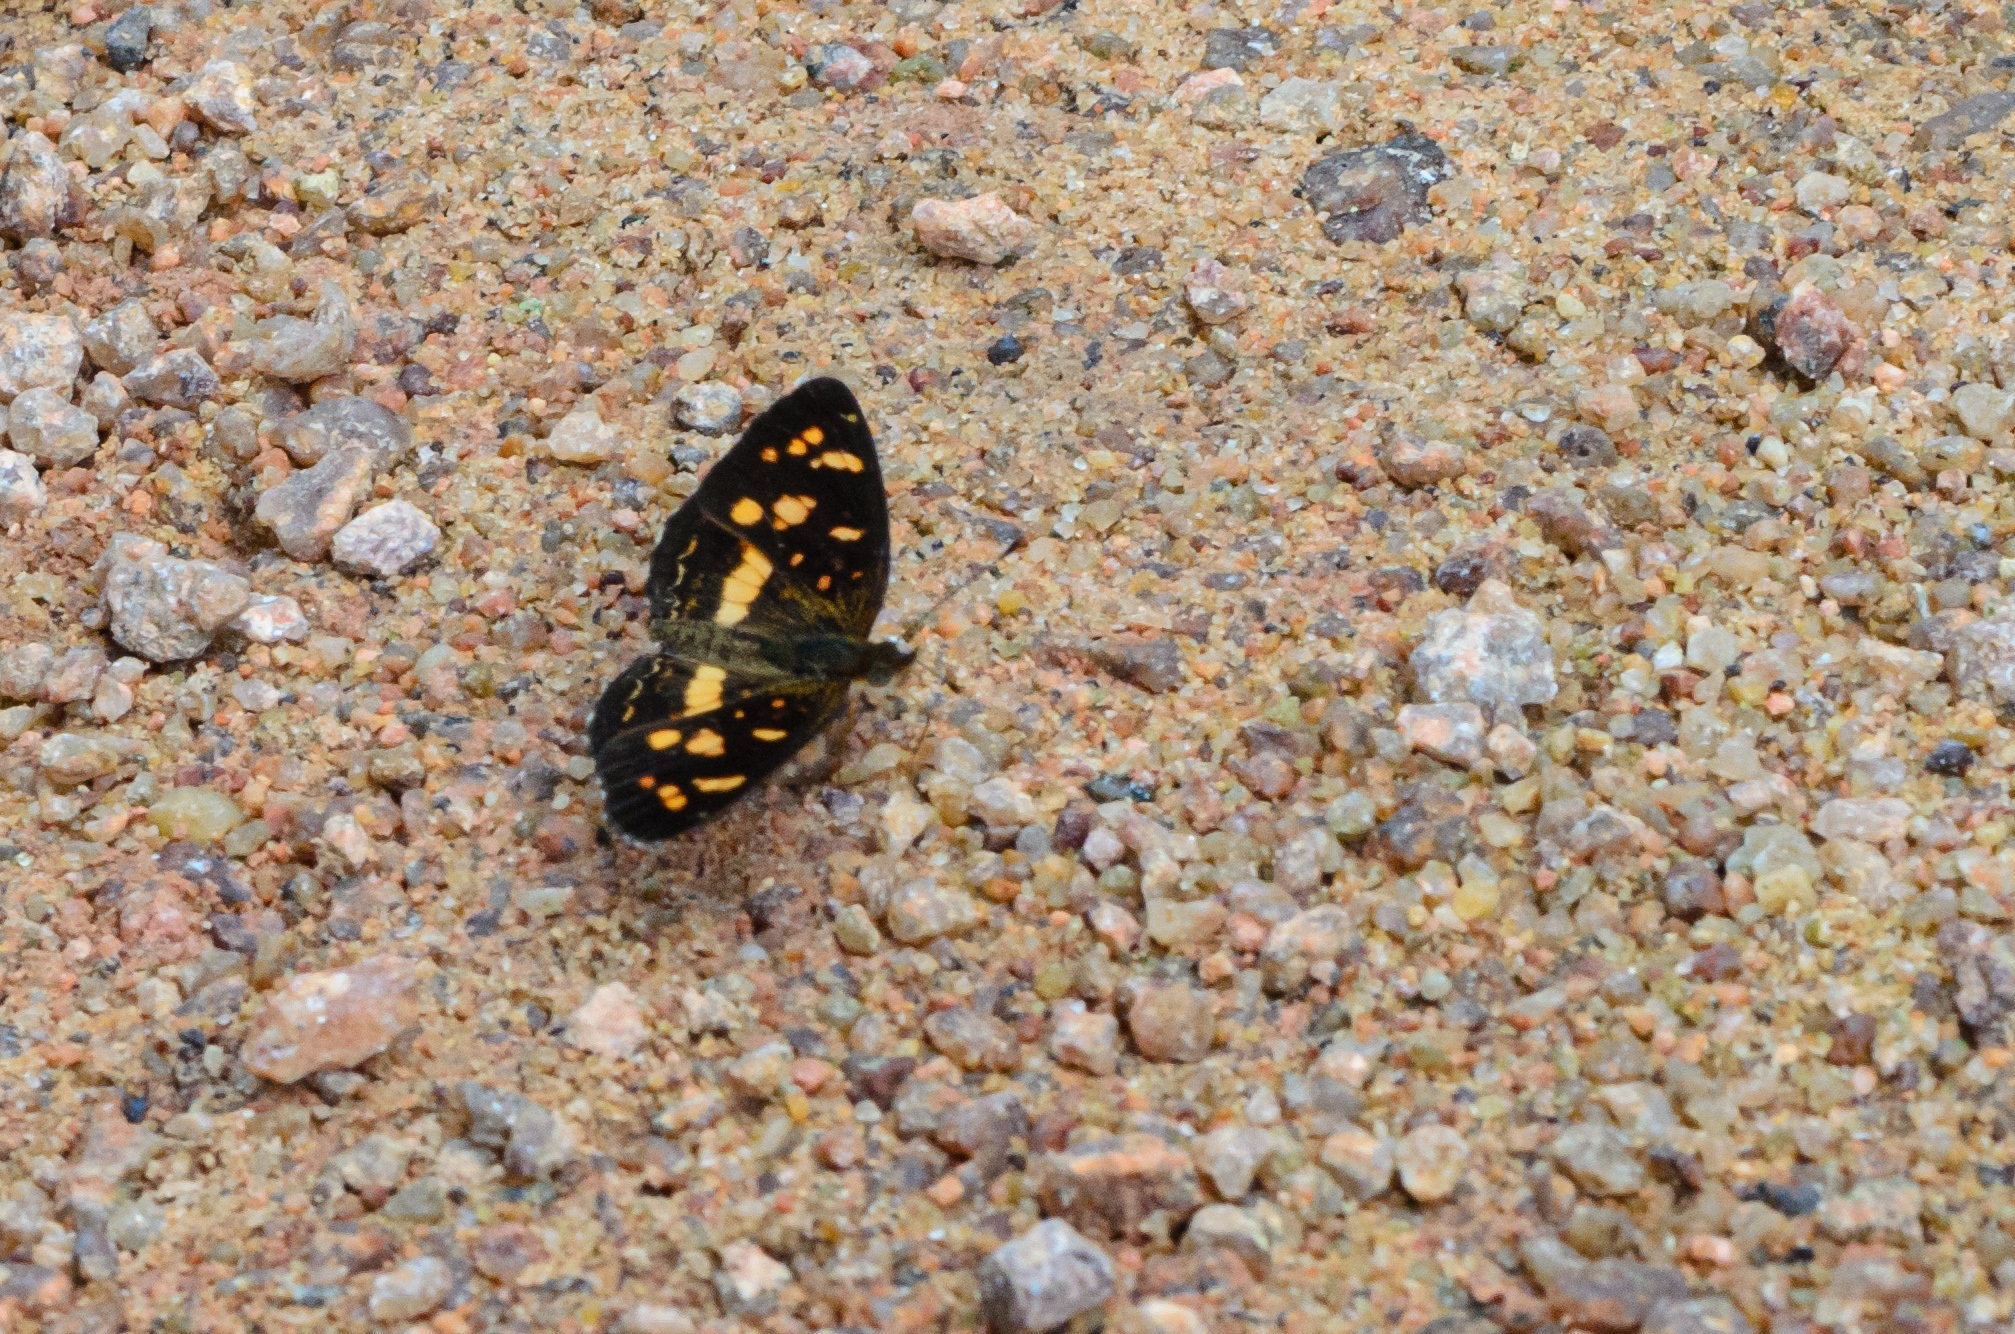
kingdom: Animalia
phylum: Arthropoda
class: Insecta
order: Lepidoptera
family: Nymphalidae
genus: Ortilia
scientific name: Ortilia orthia
